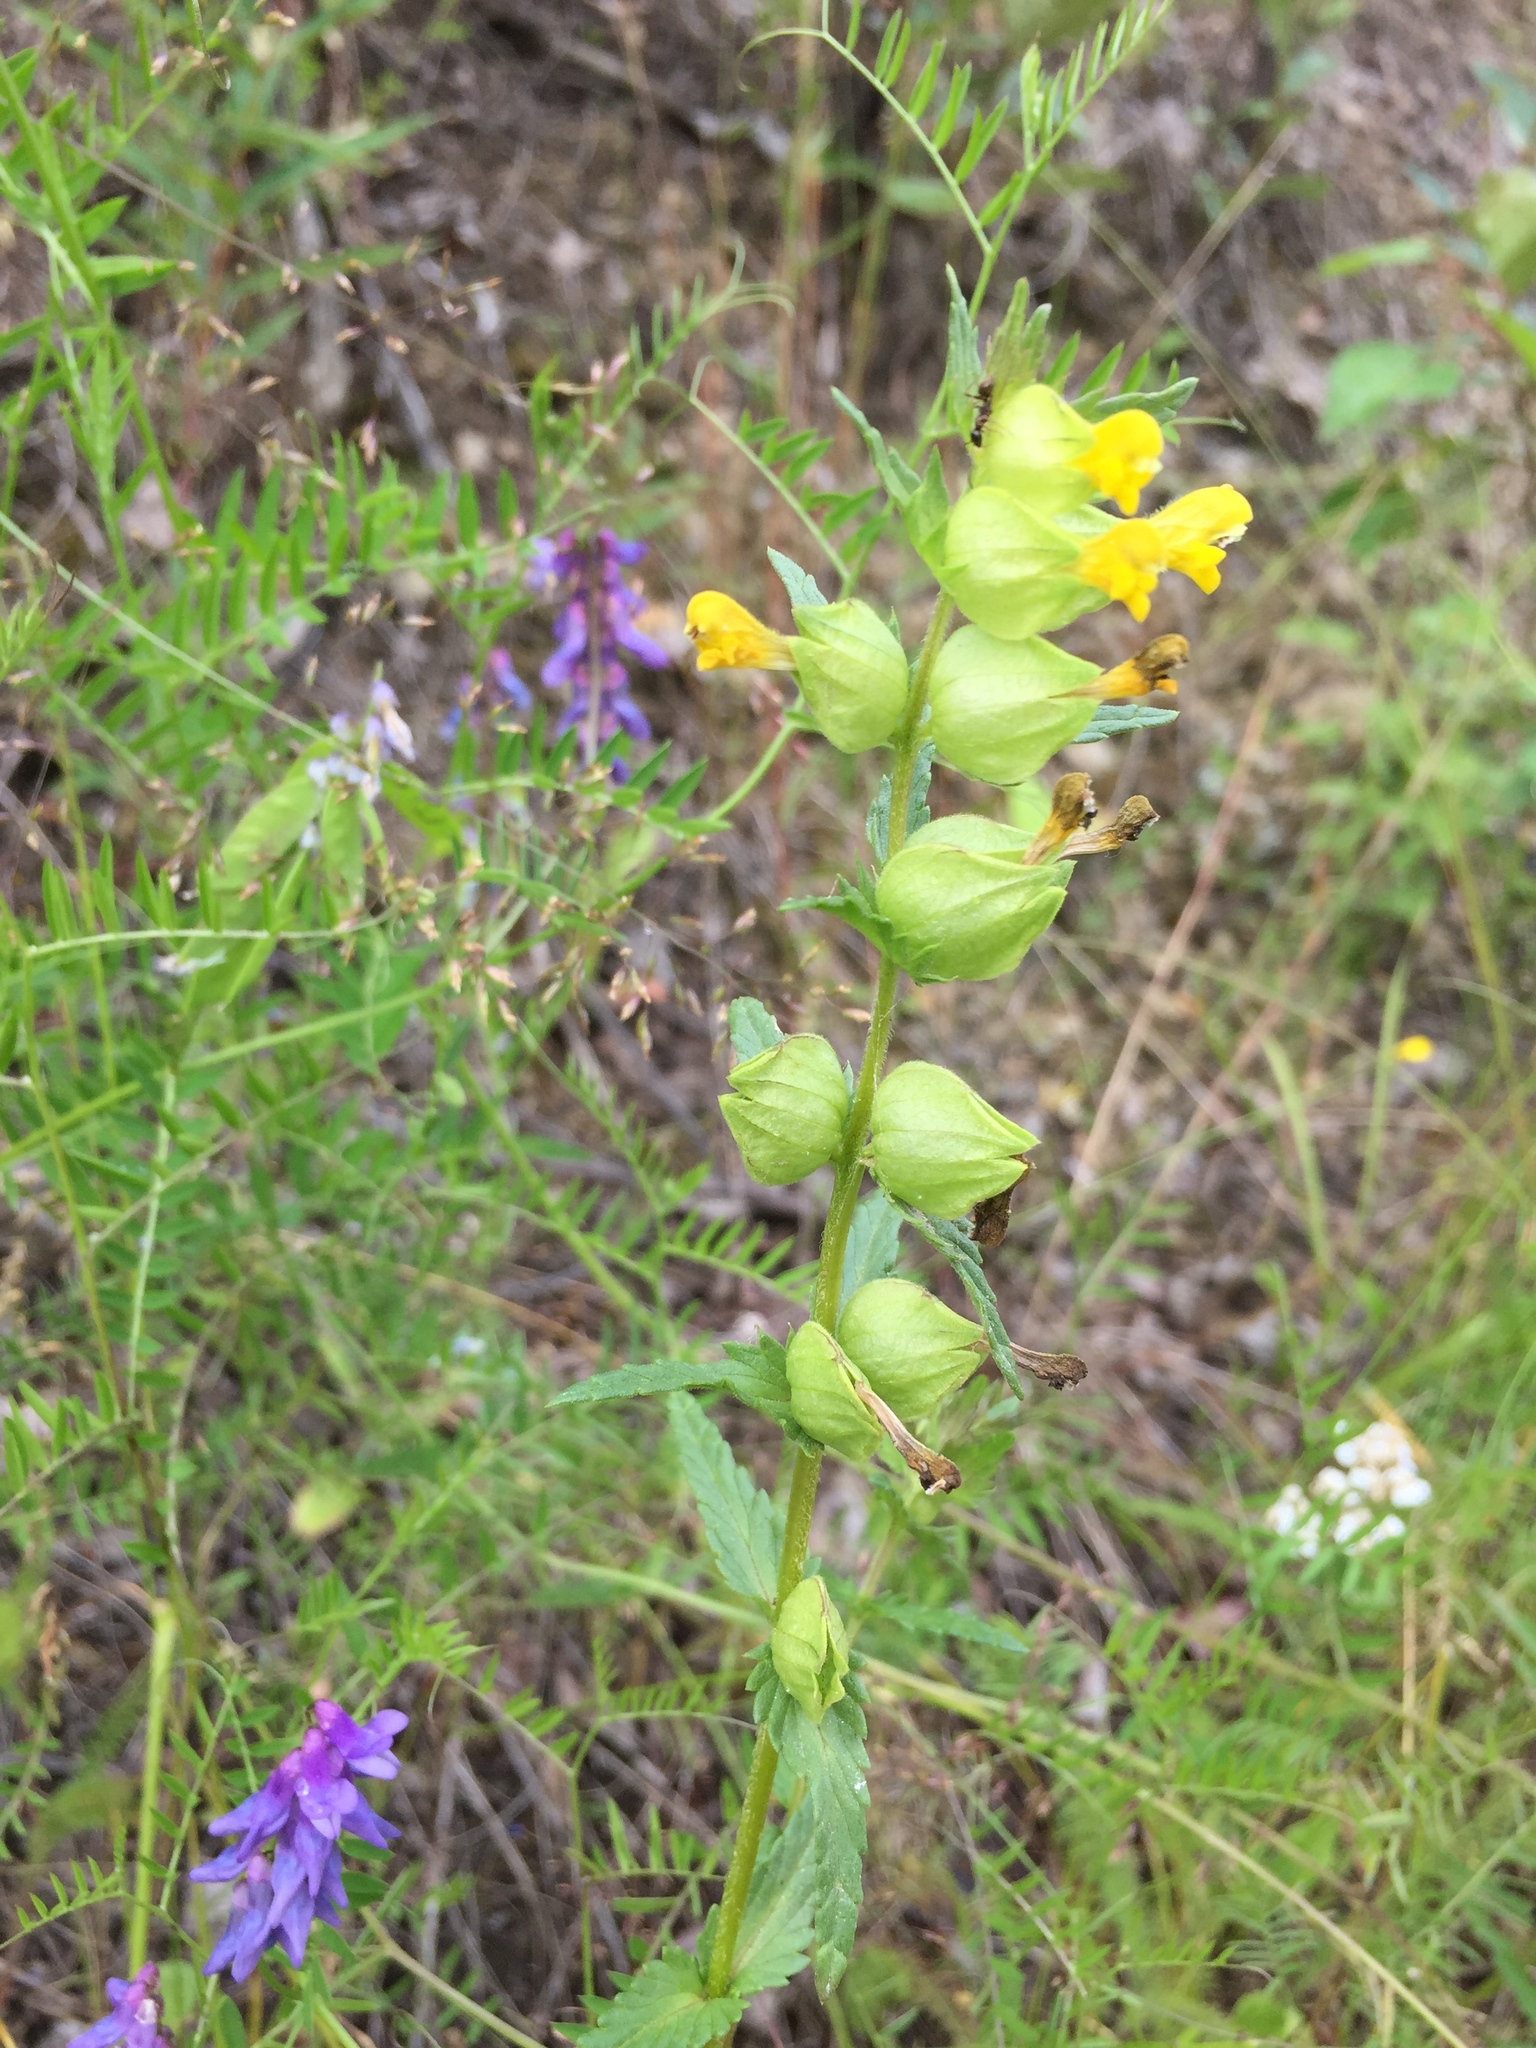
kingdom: Plantae
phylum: Tracheophyta
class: Magnoliopsida
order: Lamiales
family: Orobanchaceae
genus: Rhinanthus
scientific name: Rhinanthus minor
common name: Yellow-rattle
